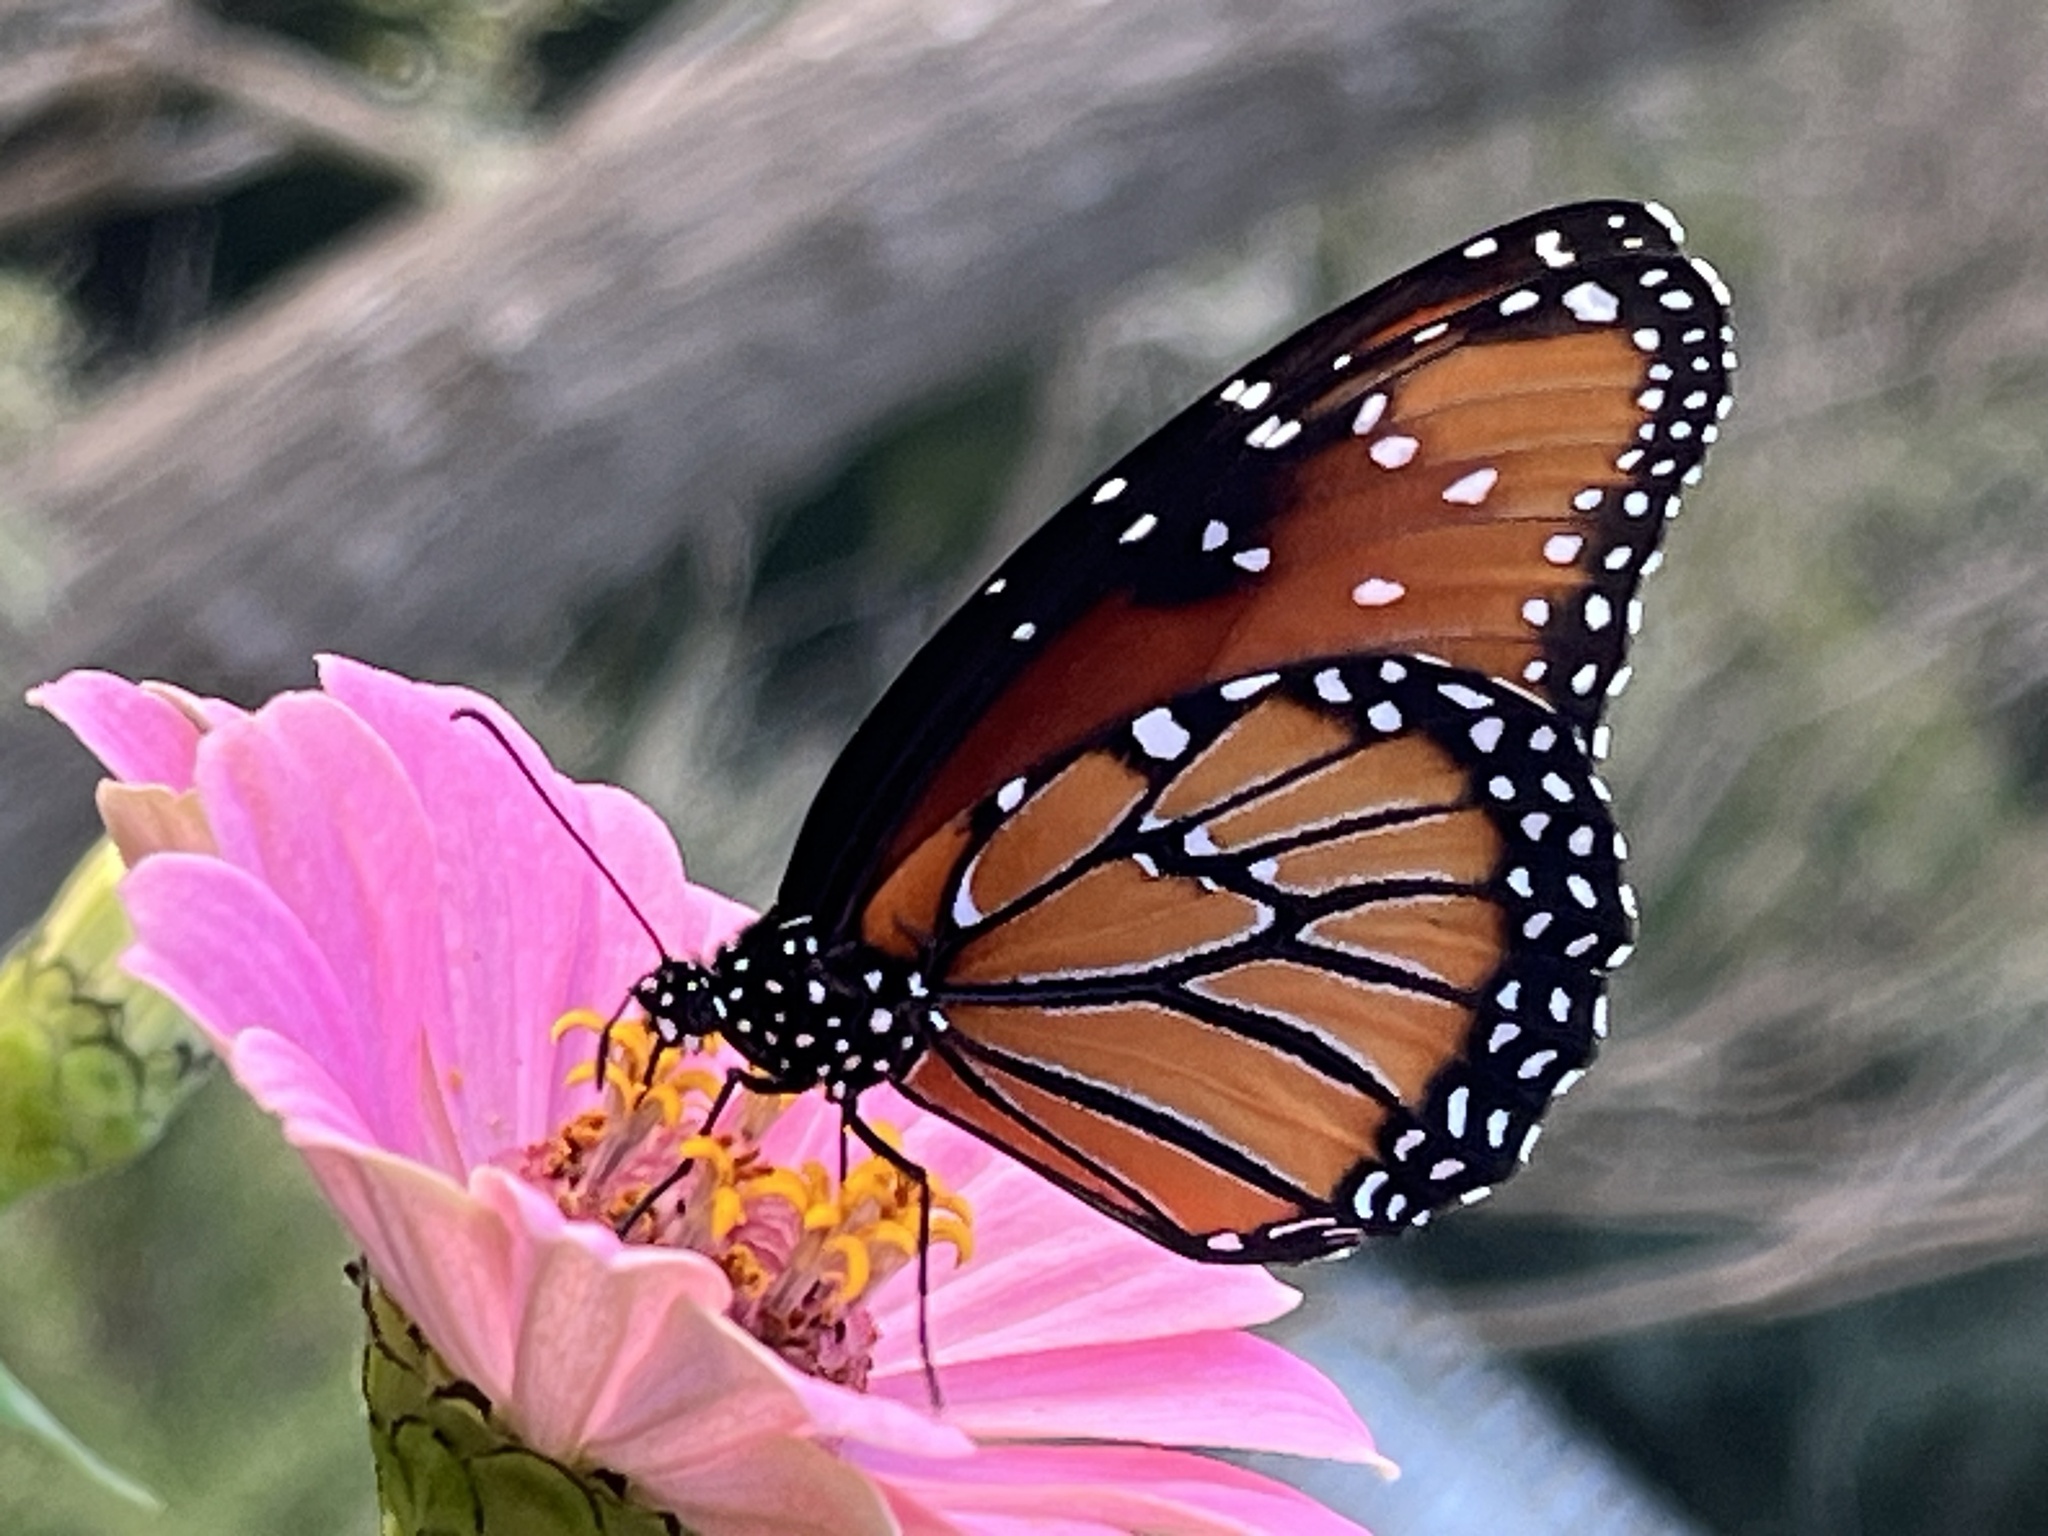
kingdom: Animalia
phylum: Arthropoda
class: Insecta
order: Lepidoptera
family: Nymphalidae
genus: Danaus
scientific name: Danaus gilippus
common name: Queen
